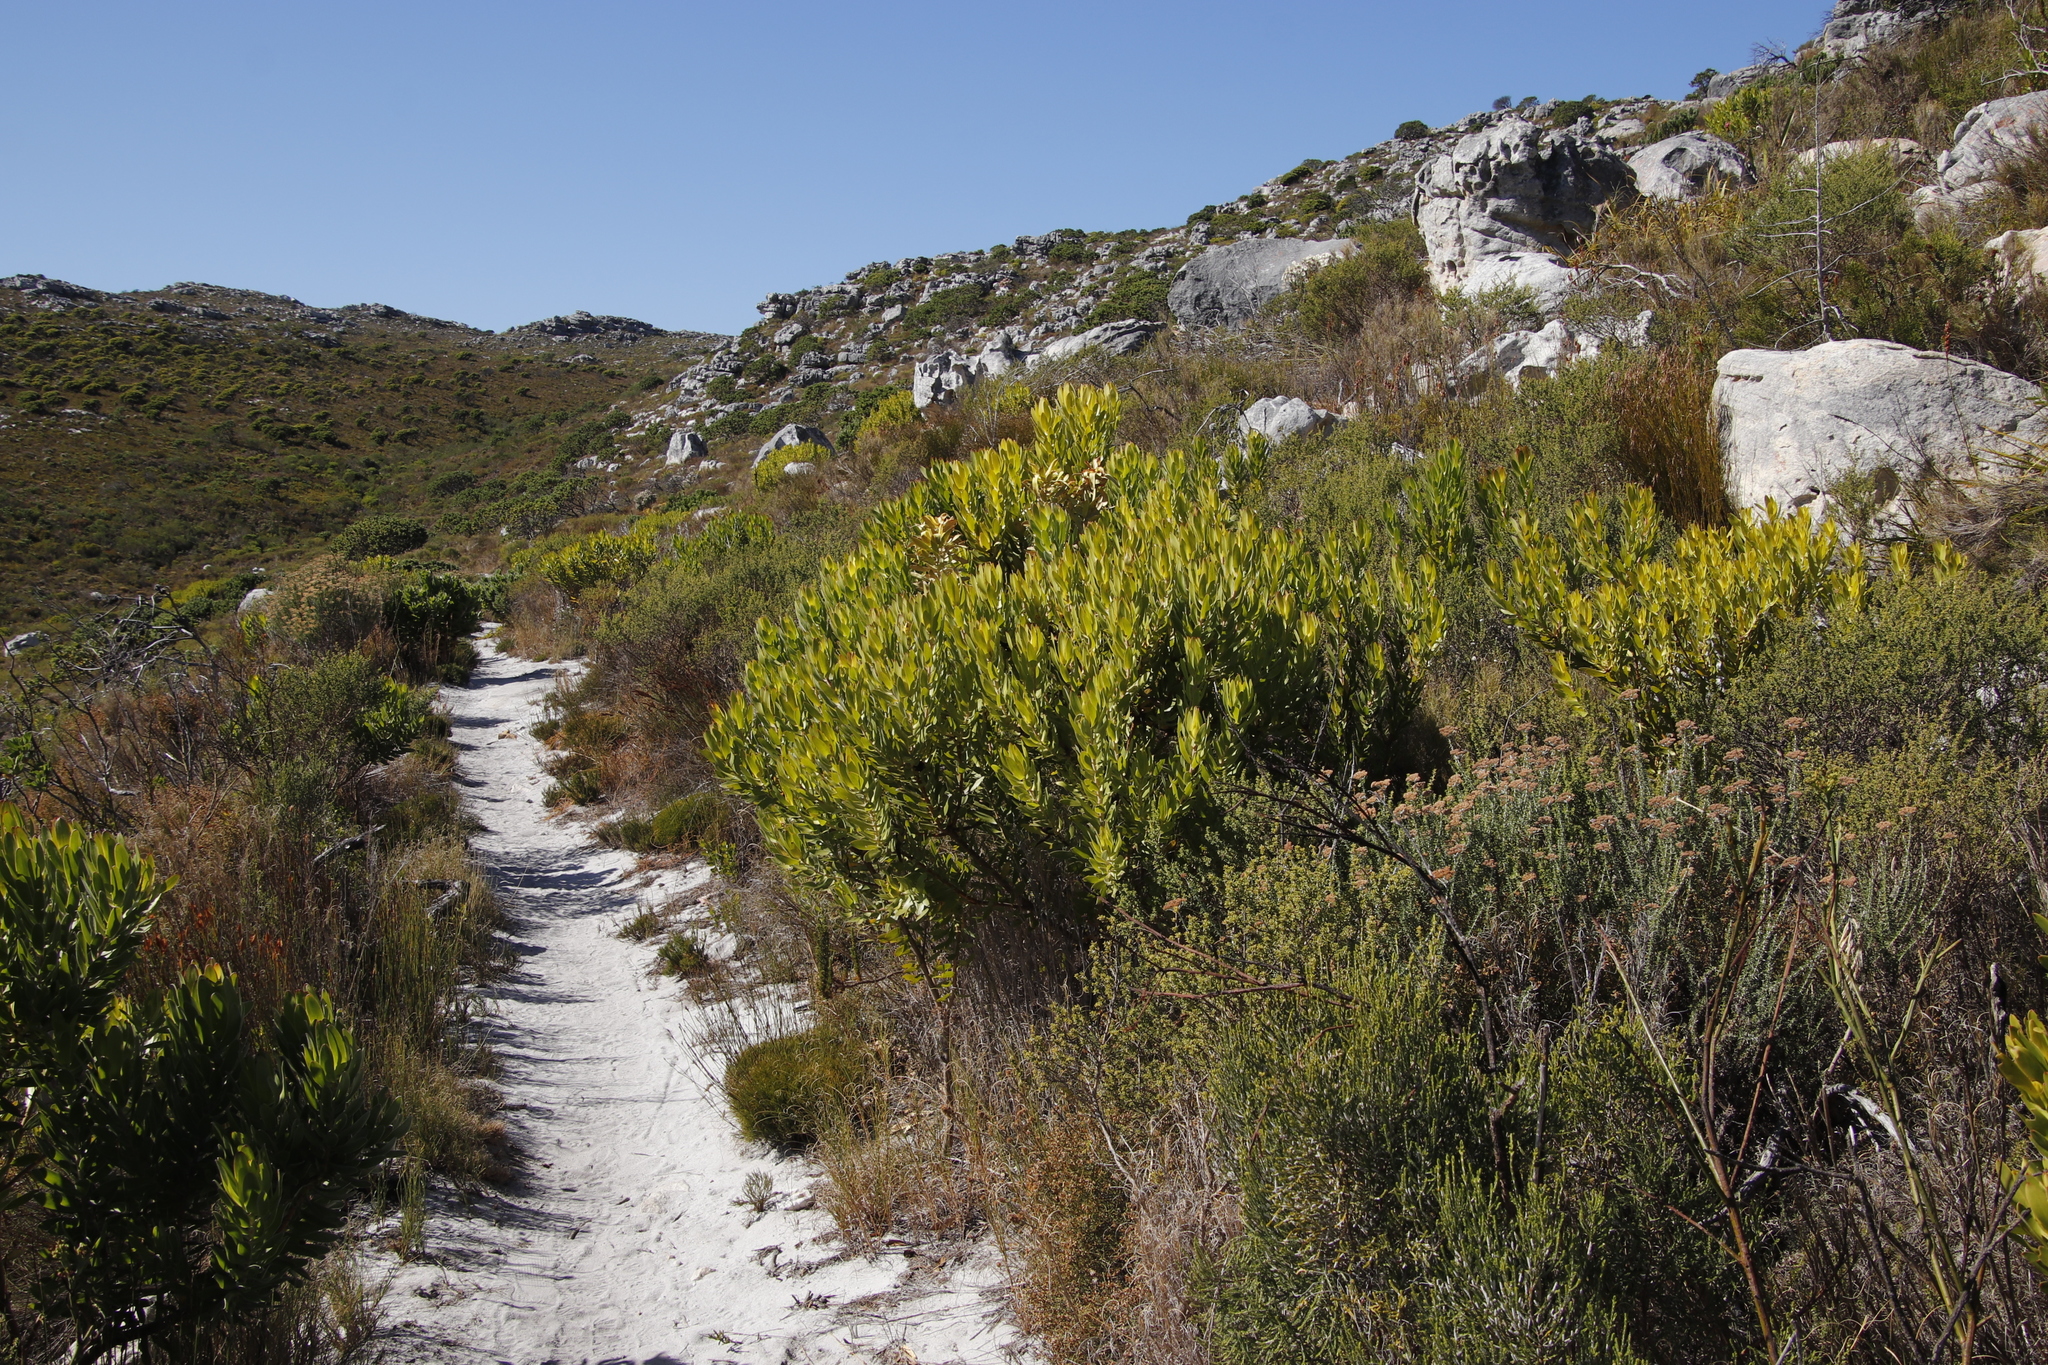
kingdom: Plantae
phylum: Tracheophyta
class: Magnoliopsida
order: Proteales
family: Proteaceae
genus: Leucadendron
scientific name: Leucadendron laureolum
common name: Golden sunshinebush
